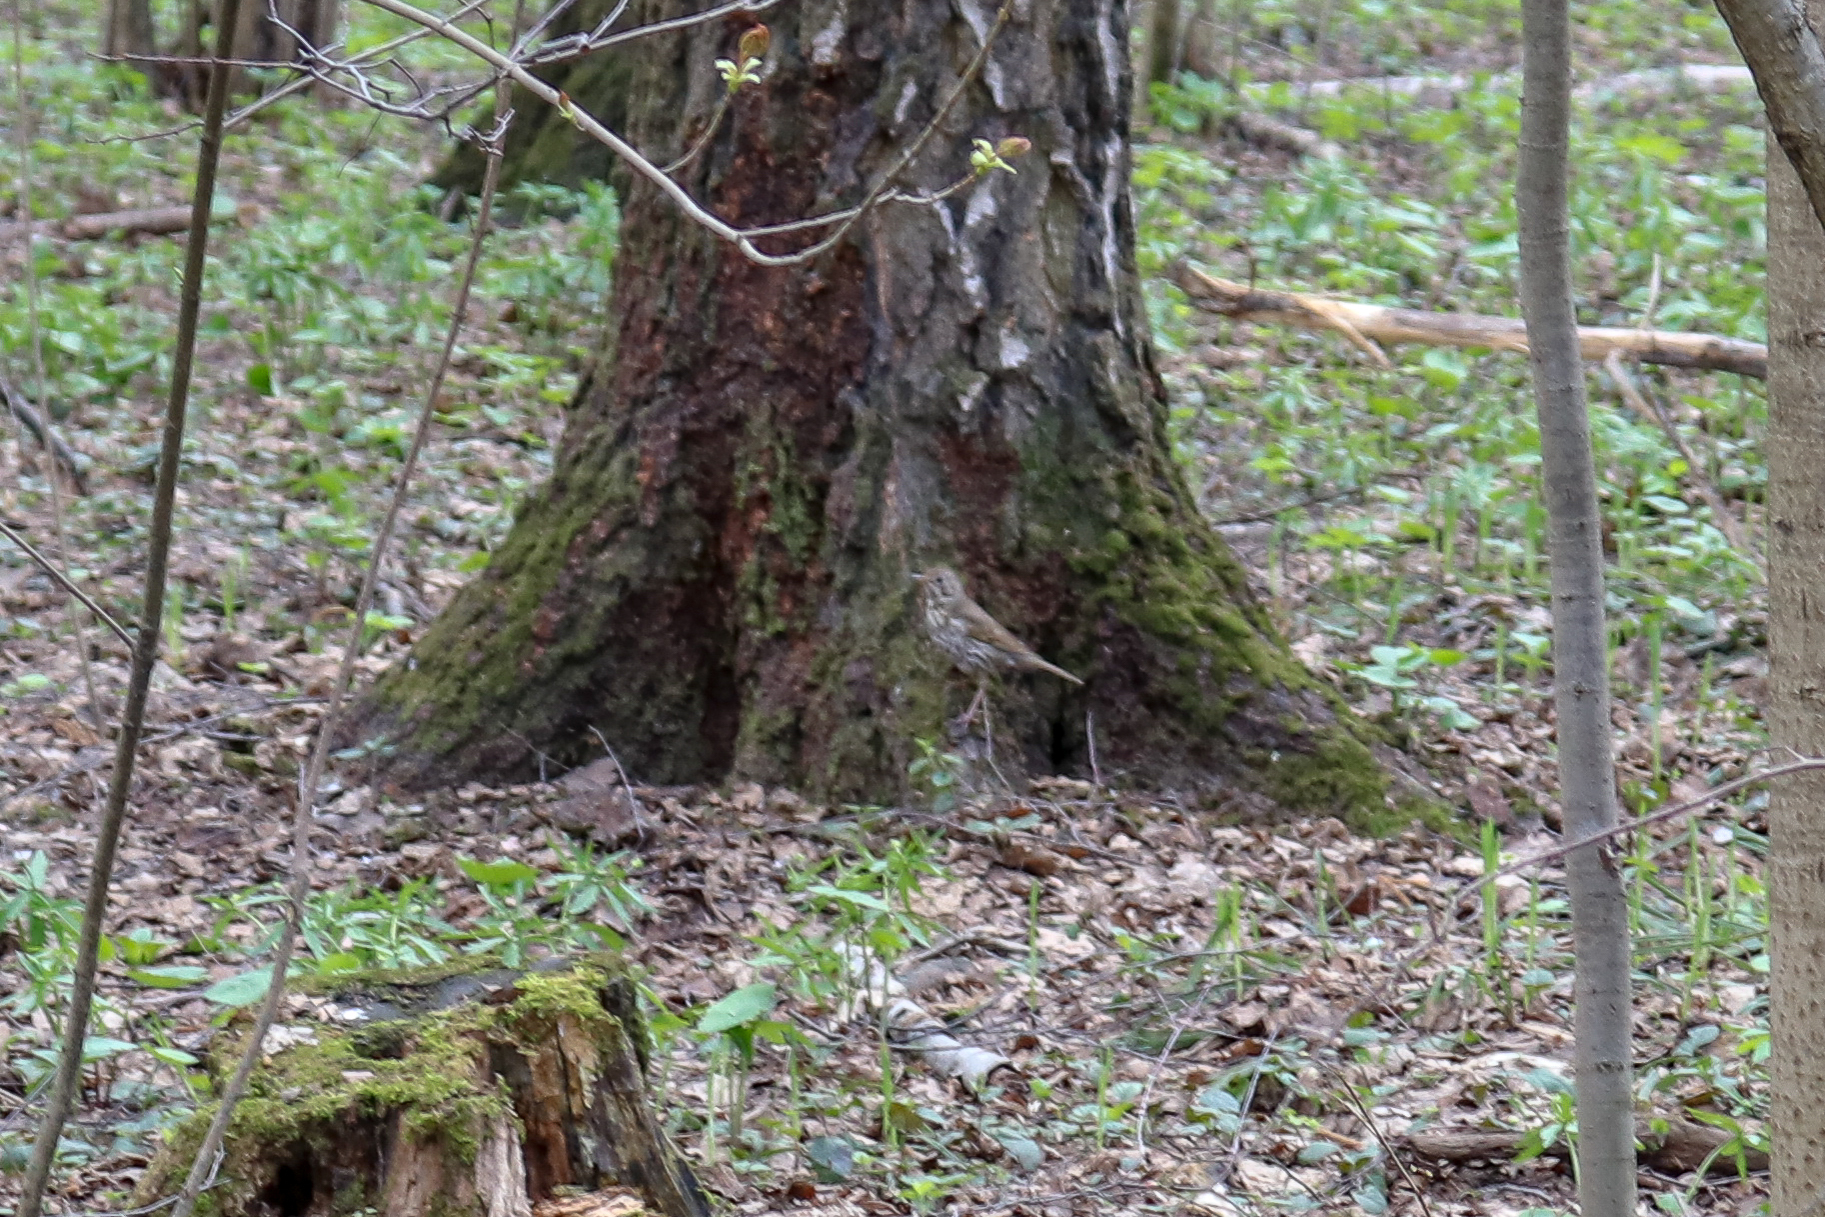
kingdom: Animalia
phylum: Chordata
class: Aves
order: Passeriformes
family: Turdidae
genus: Turdus
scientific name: Turdus philomelos
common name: Song thrush
